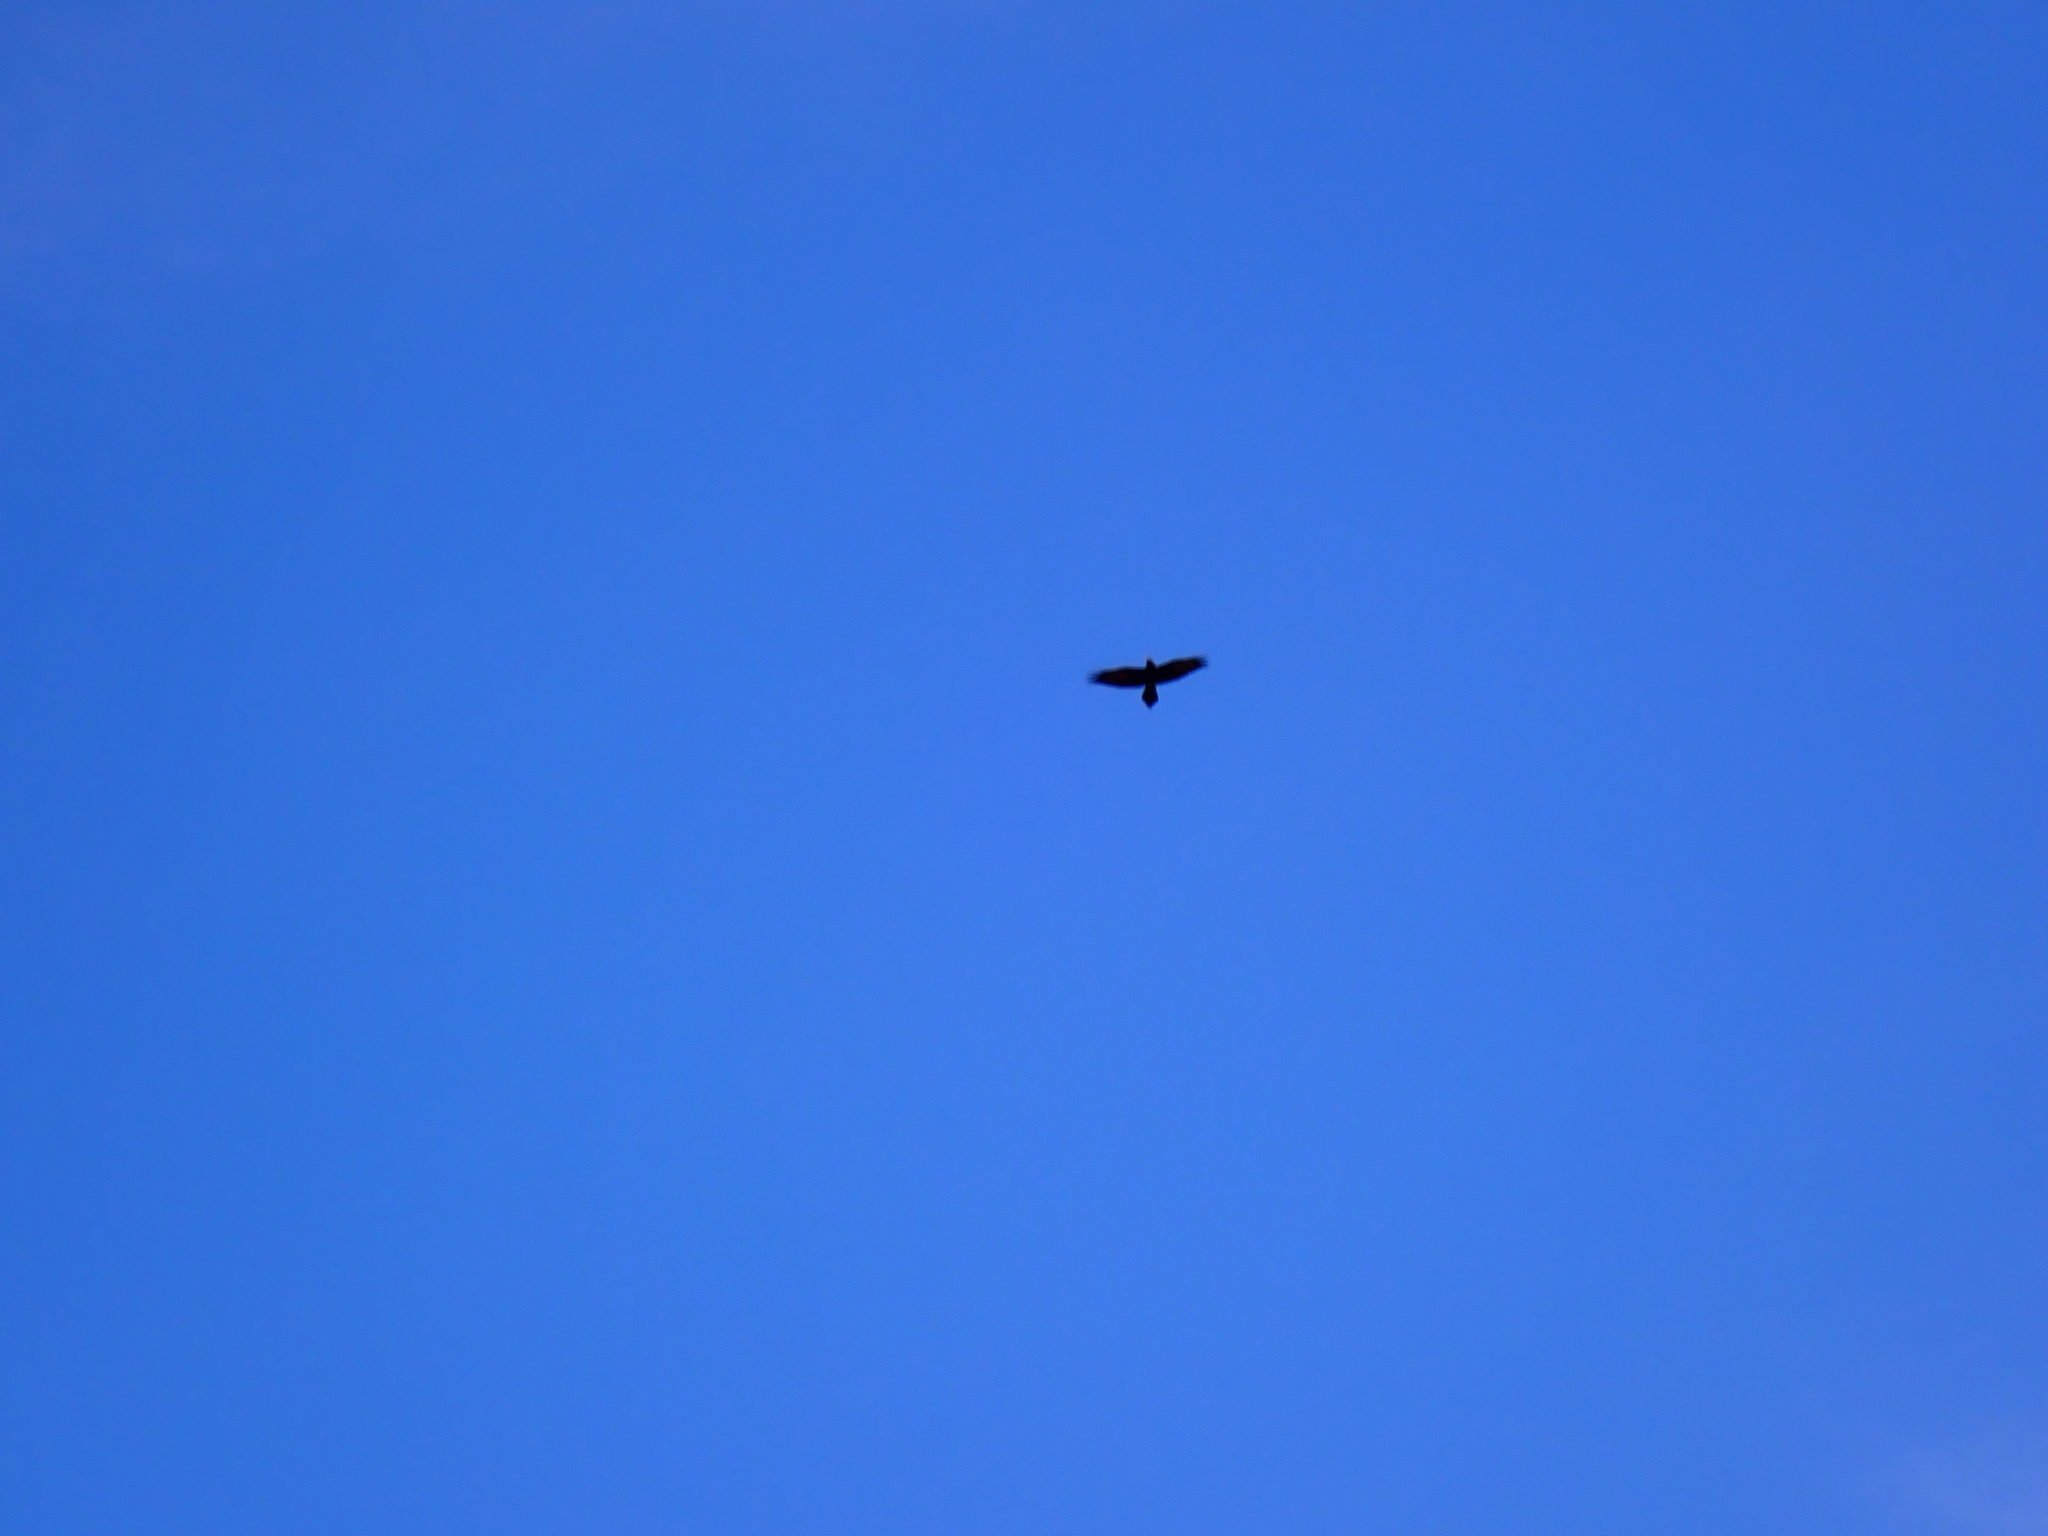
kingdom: Animalia
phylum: Chordata
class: Aves
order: Passeriformes
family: Corvidae
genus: Corvus
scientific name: Corvus corax
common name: Common raven
